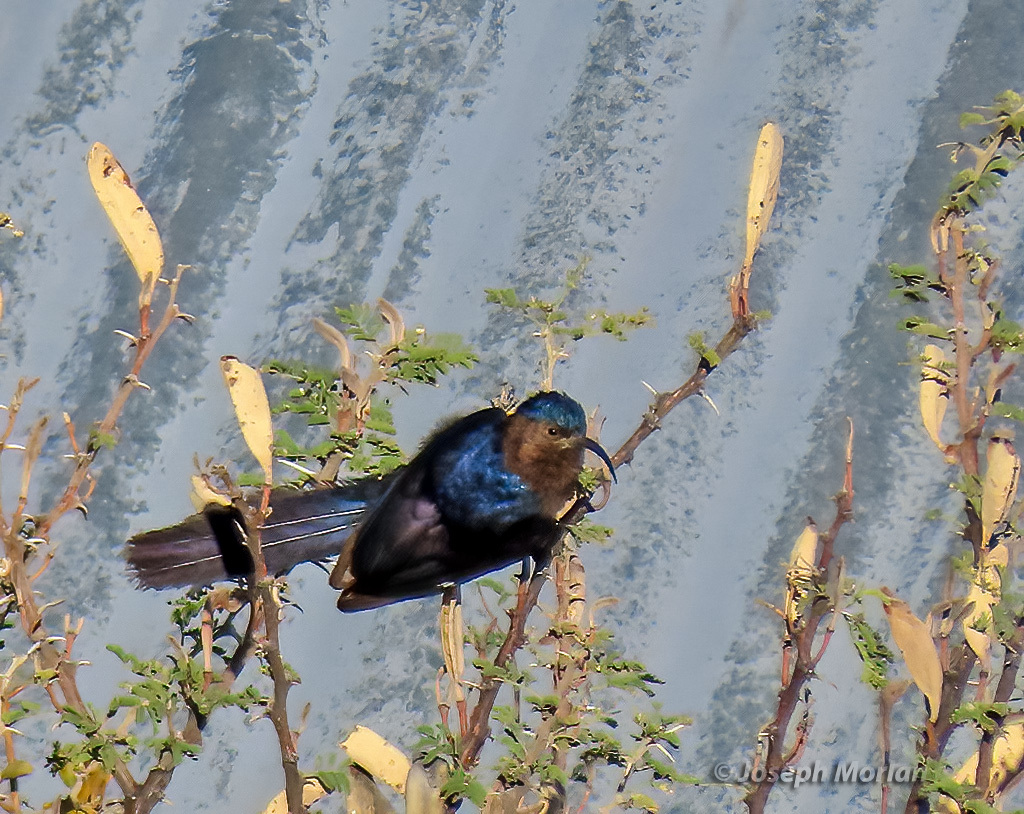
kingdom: Animalia
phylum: Chordata
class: Aves
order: Bucerotiformes
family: Phoeniculidae
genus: Rhinopomastus
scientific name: Rhinopomastus cyanomelas
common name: Common scimitarbill
